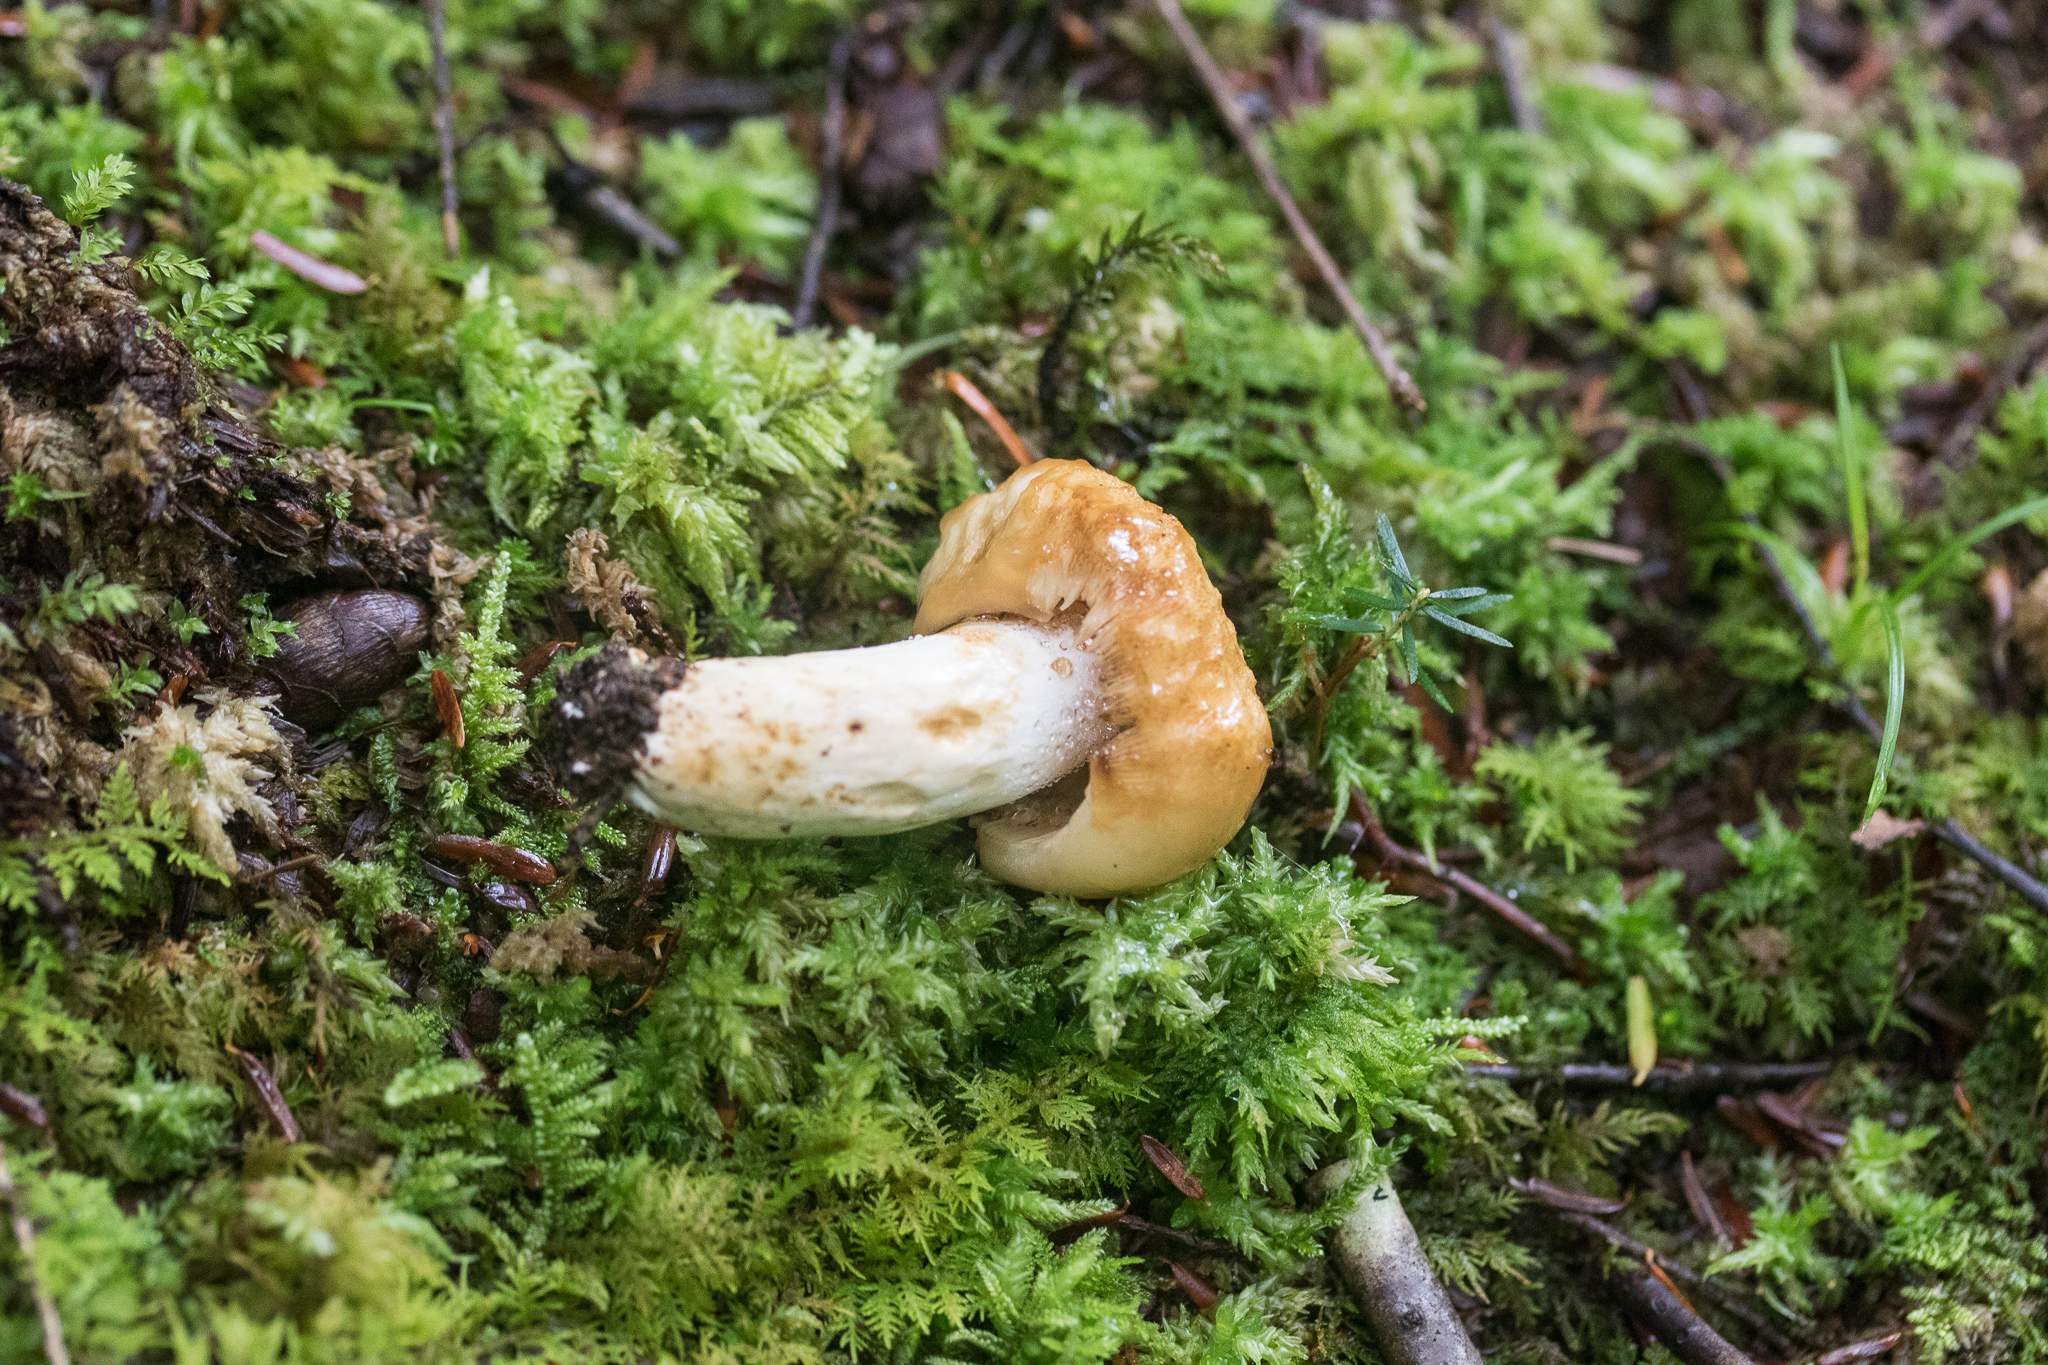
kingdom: Fungi
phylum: Basidiomycota
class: Agaricomycetes
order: Russulales
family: Russulaceae
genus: Russula
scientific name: Russula grata
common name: Bitter almond brittlegill
